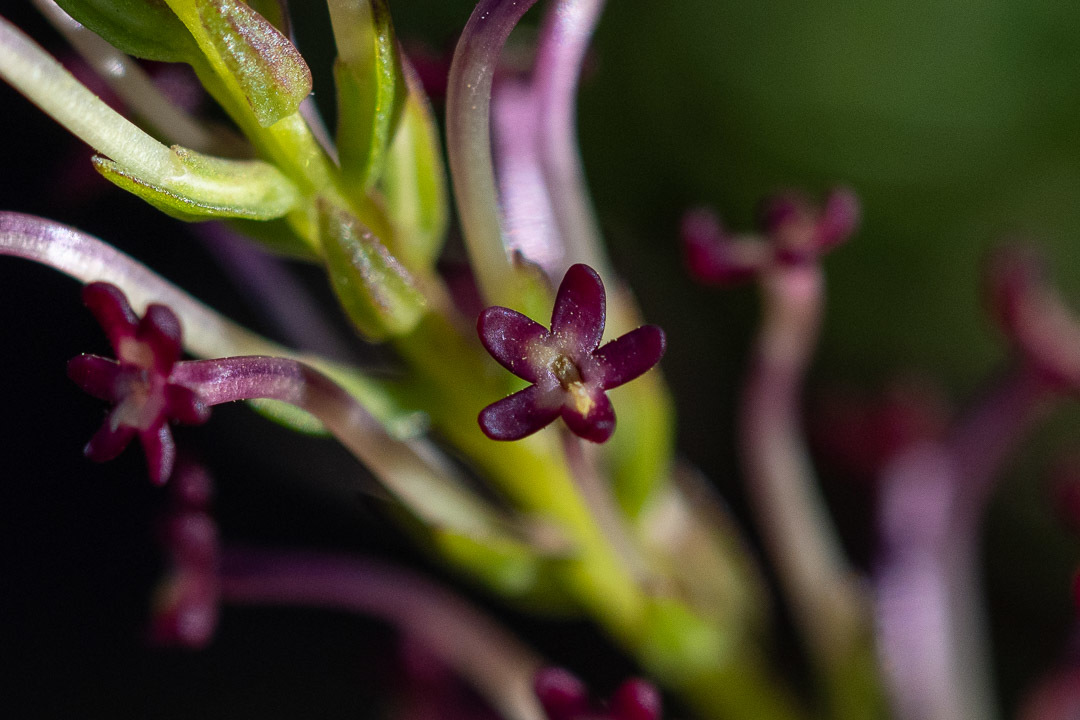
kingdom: Plantae
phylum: Tracheophyta
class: Magnoliopsida
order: Lamiales
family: Scrophulariaceae
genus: Microdon
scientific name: Microdon dubius
